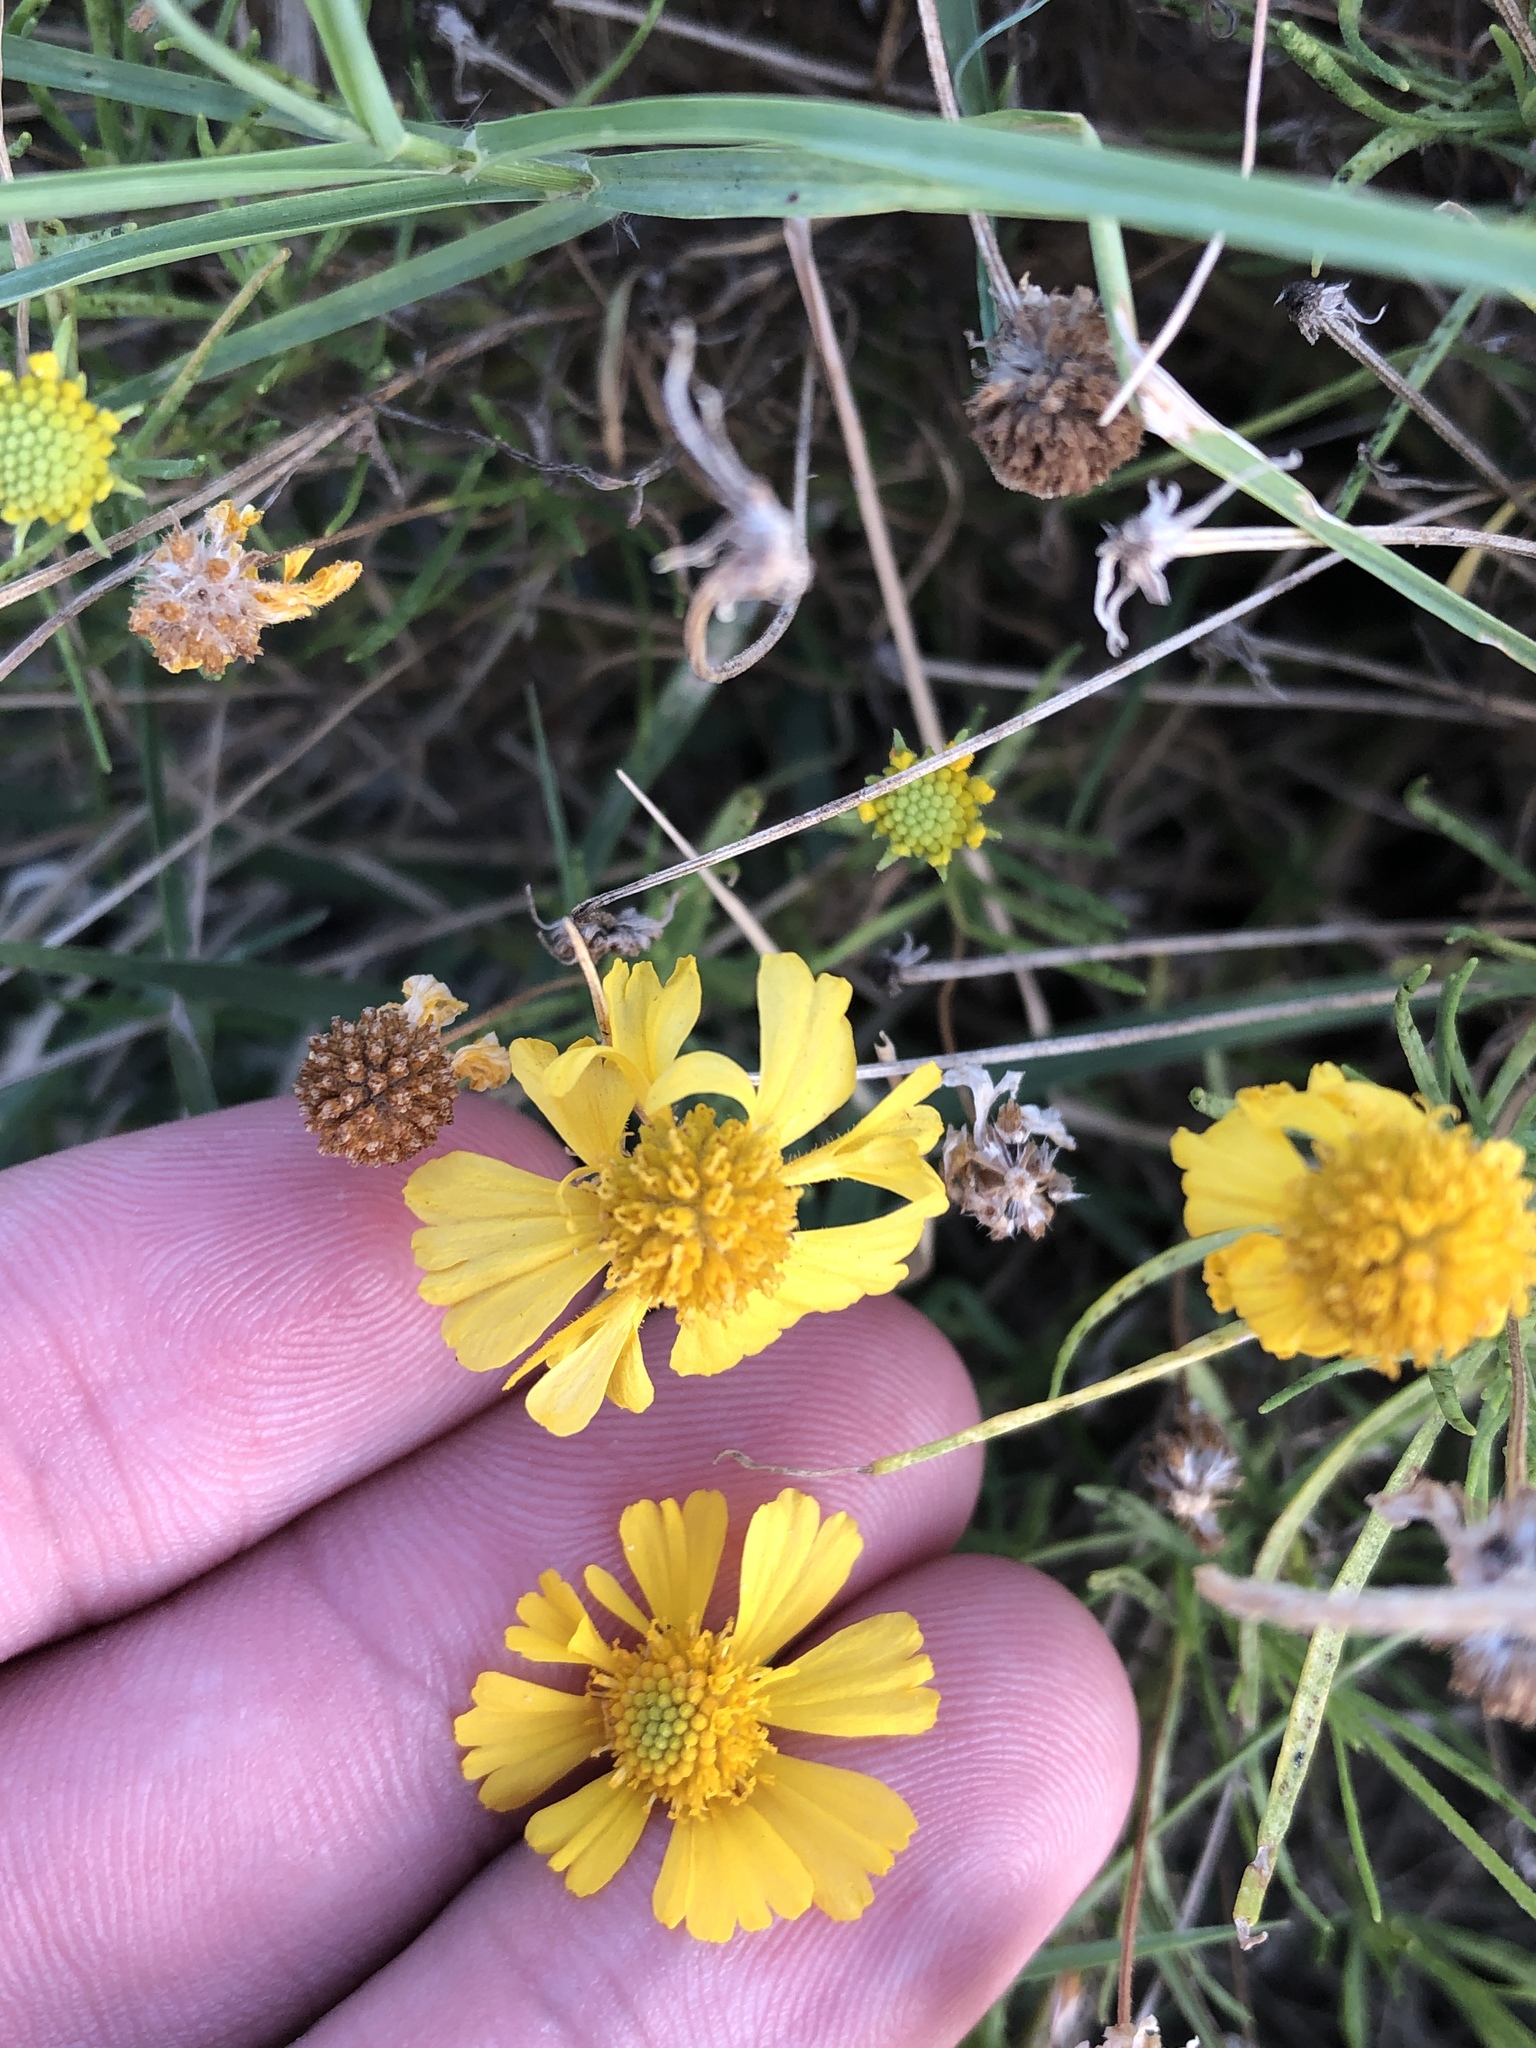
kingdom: Plantae
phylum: Tracheophyta
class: Magnoliopsida
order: Asterales
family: Asteraceae
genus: Helenium
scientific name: Helenium amarum
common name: Bitter sneezeweed
